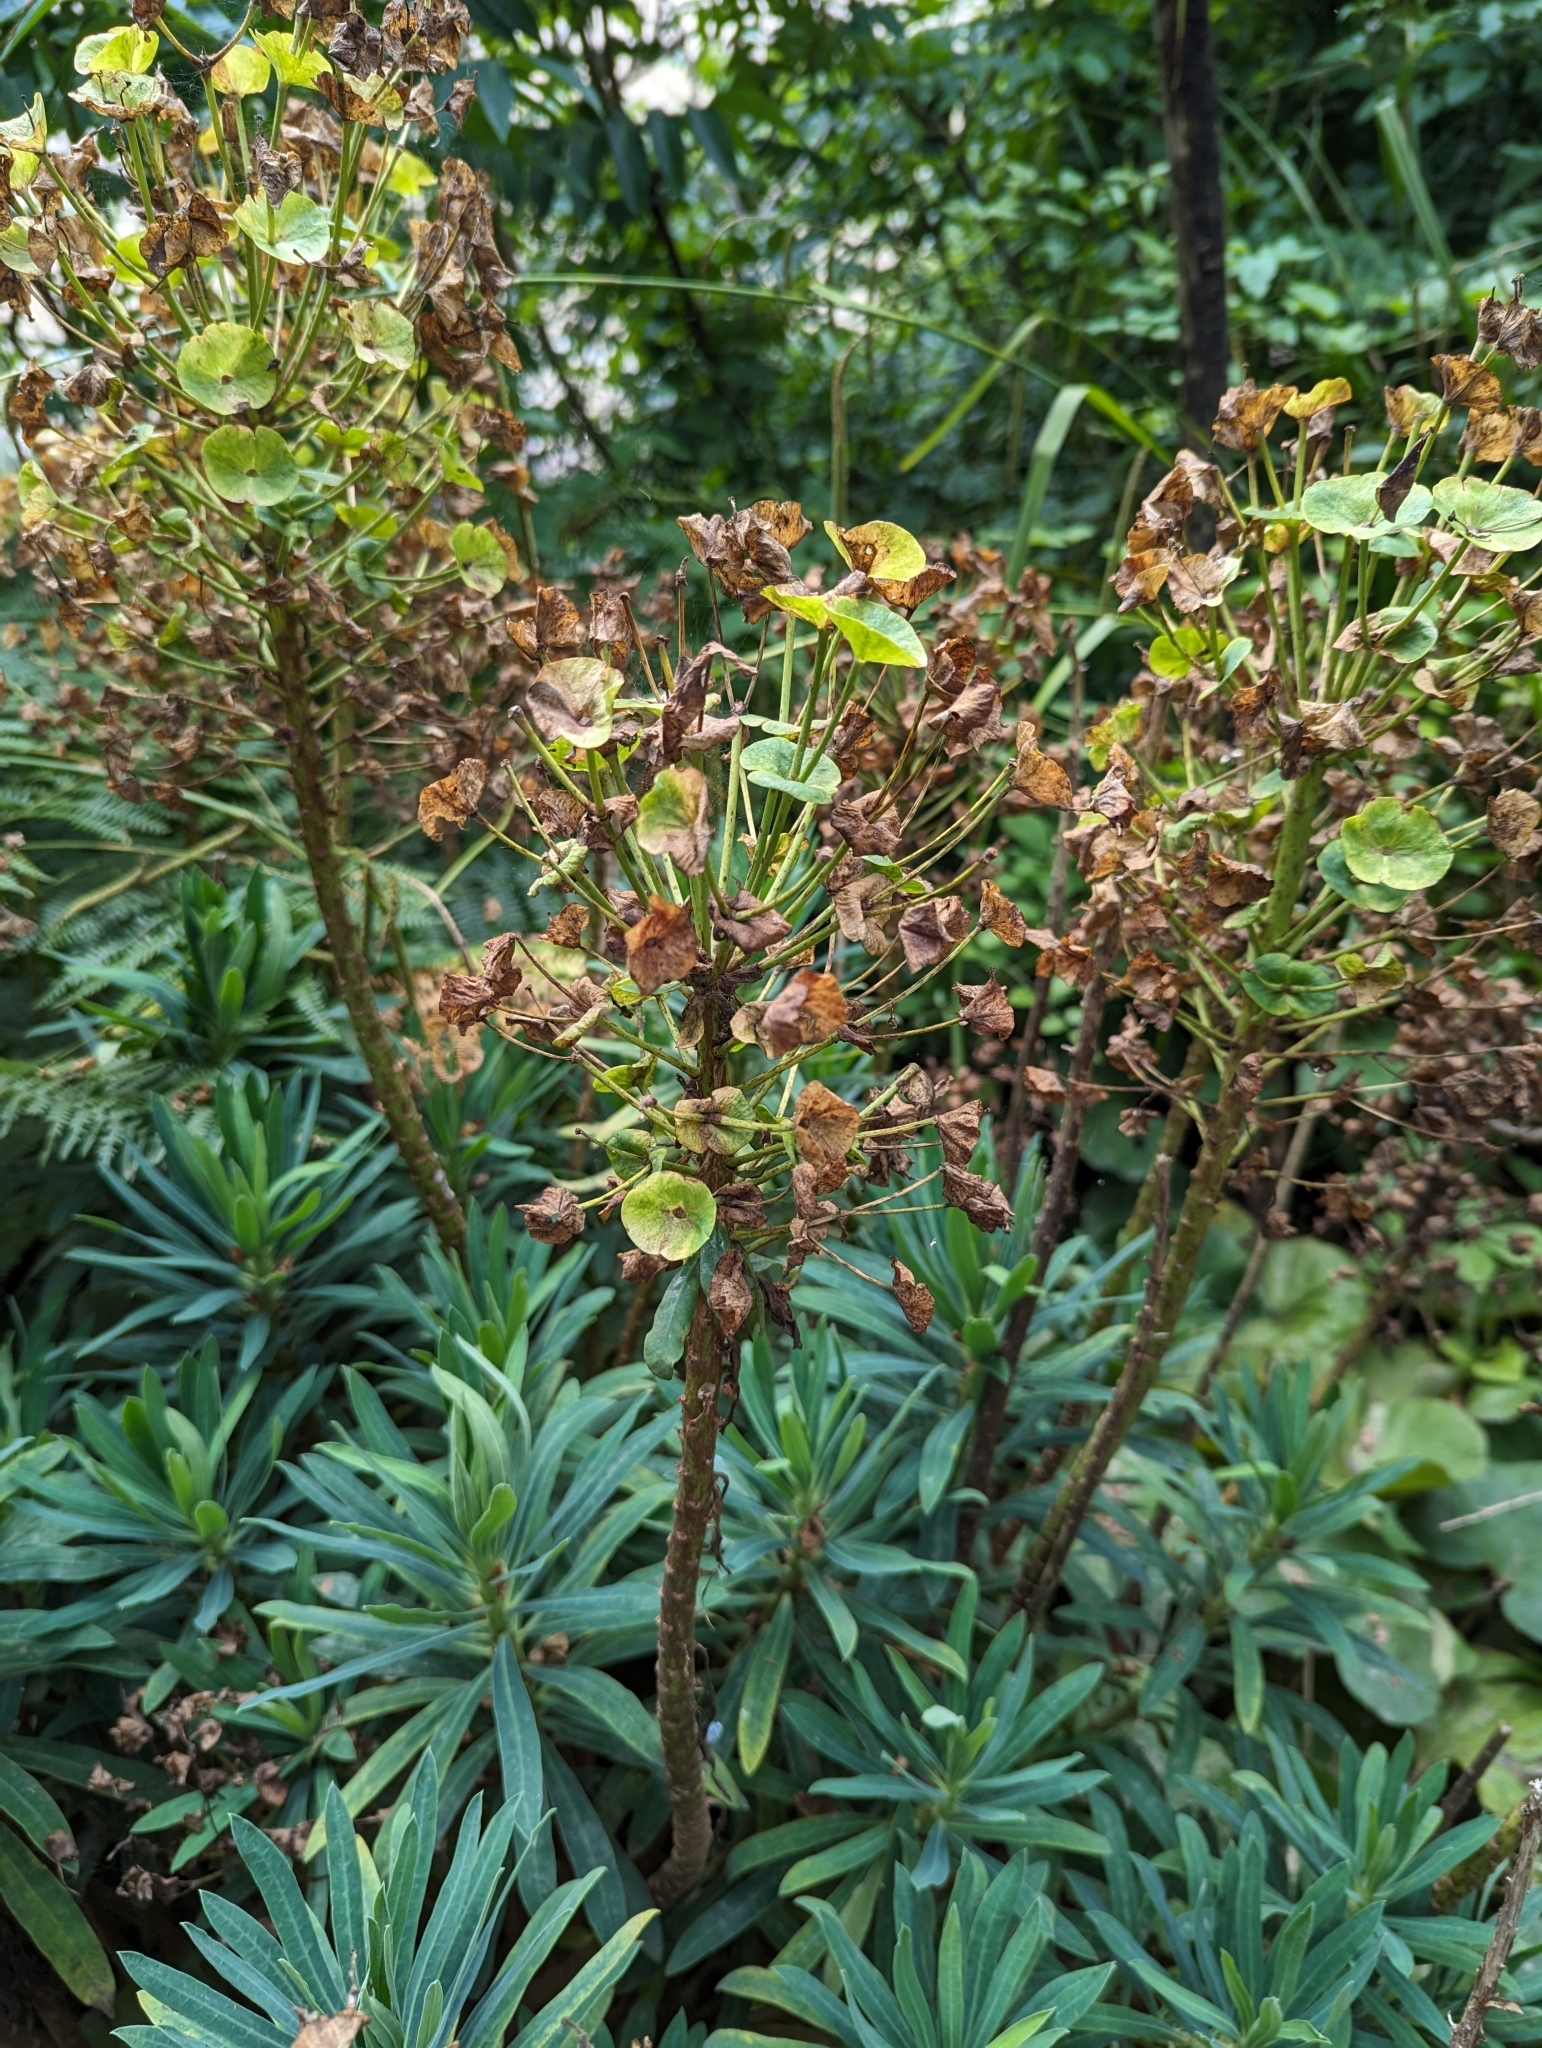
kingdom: Plantae
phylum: Tracheophyta
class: Magnoliopsida
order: Malpighiales
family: Euphorbiaceae
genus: Euphorbia
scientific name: Euphorbia characias
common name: Mediterranean spurge
